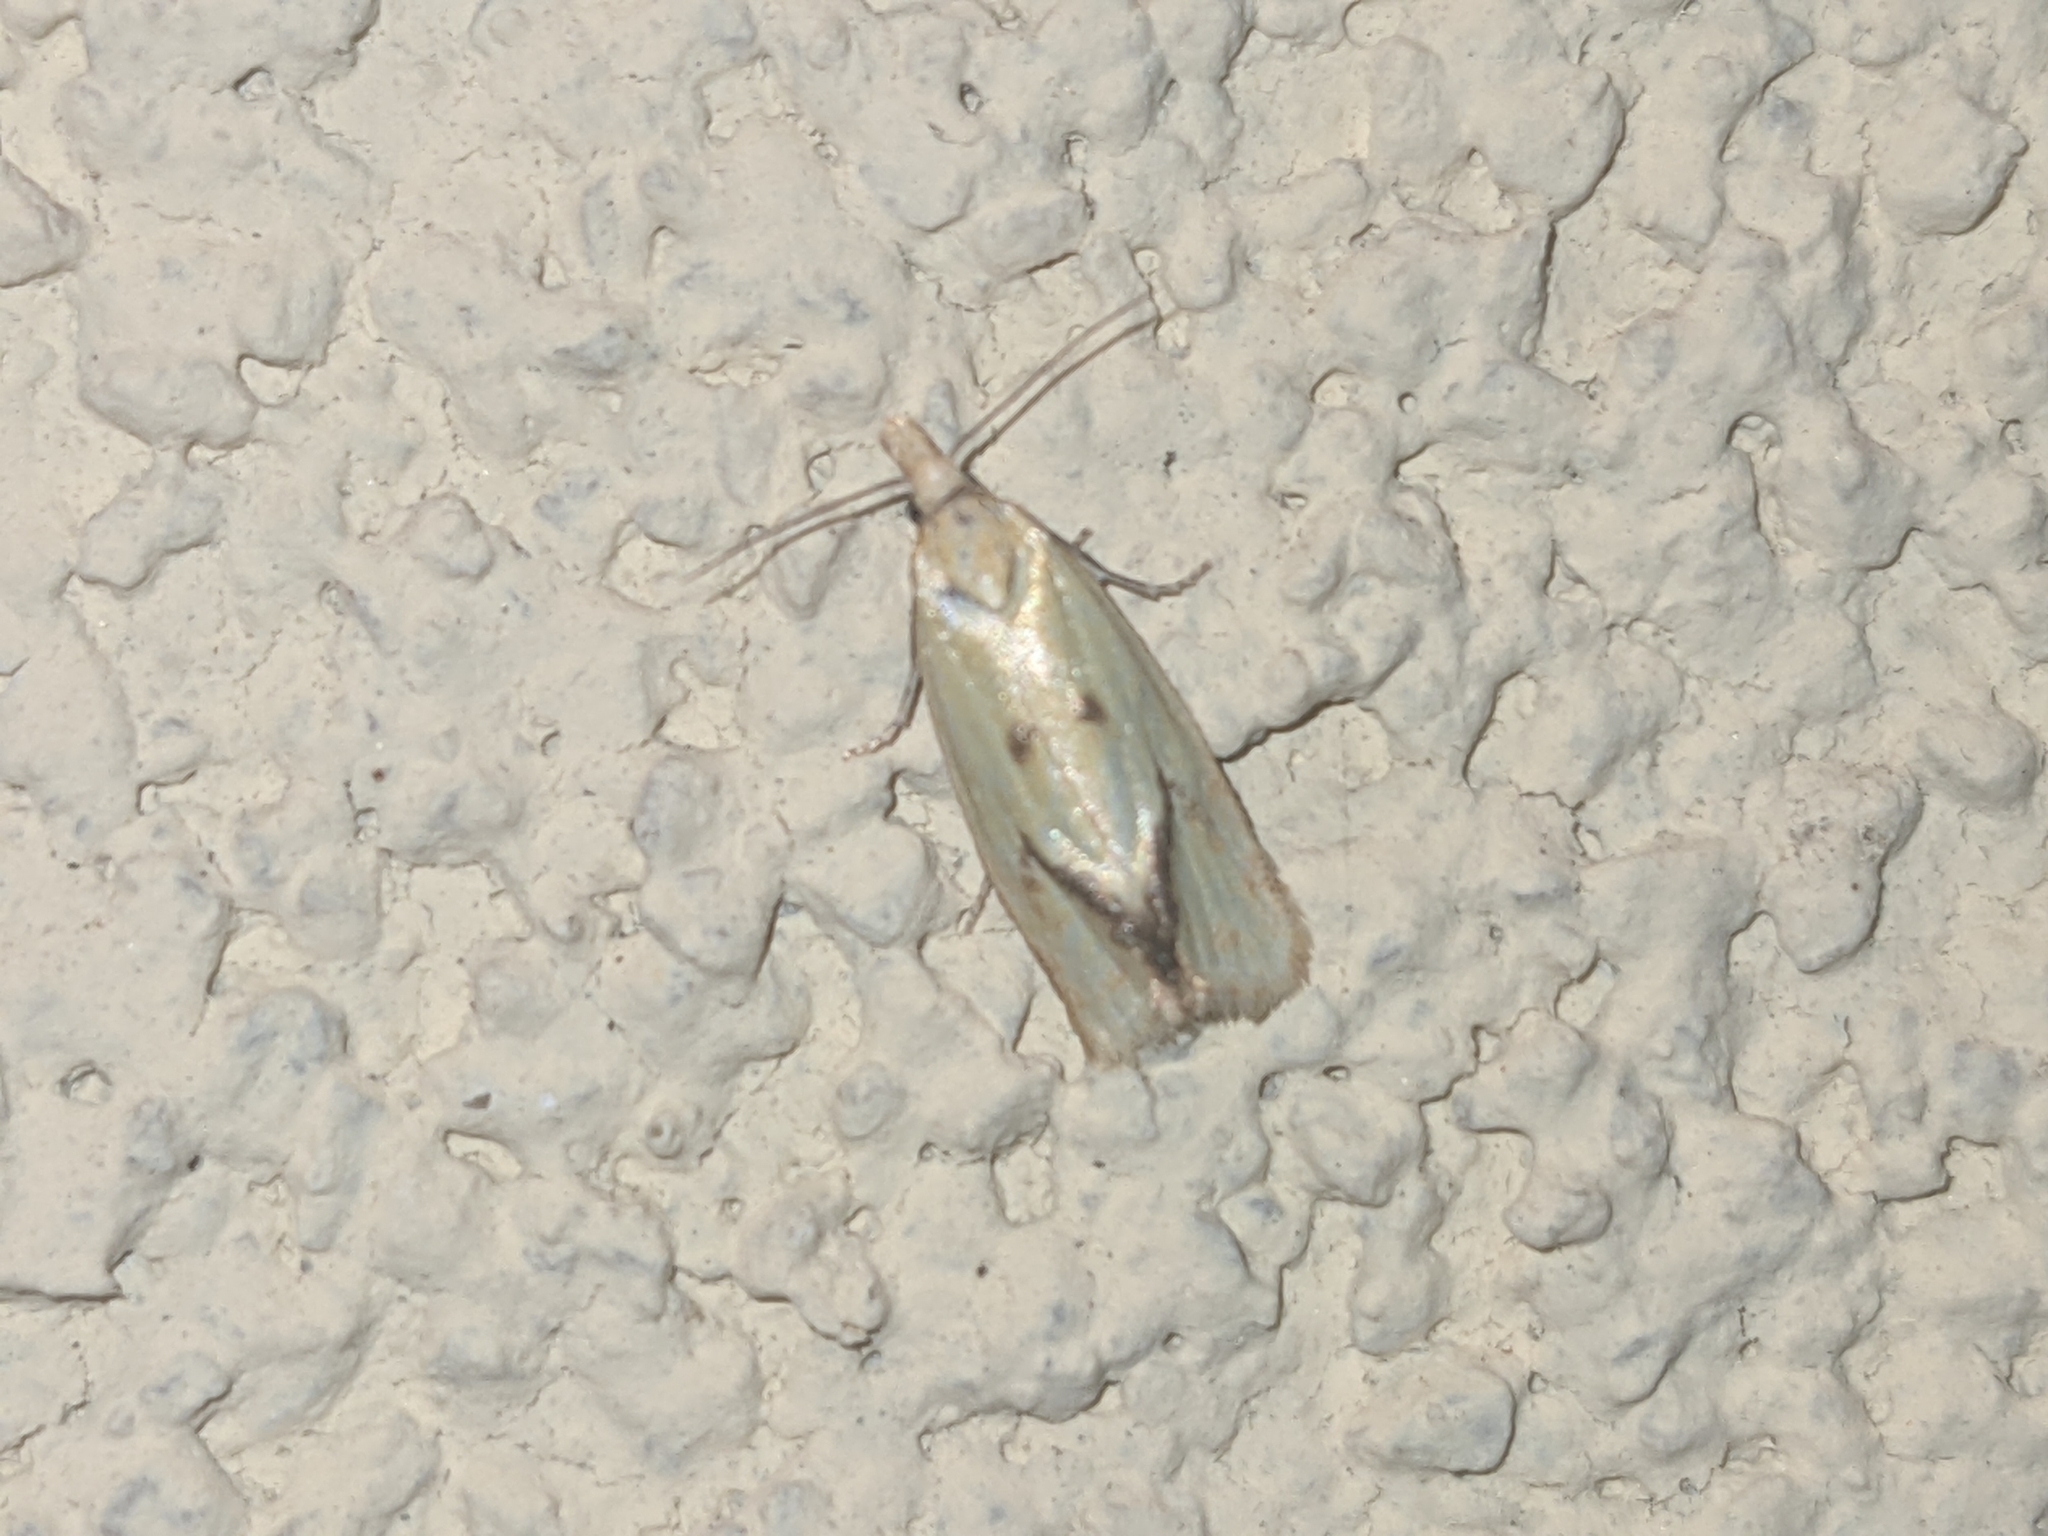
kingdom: Animalia
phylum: Arthropoda
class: Insecta
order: Lepidoptera
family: Tortricidae
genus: Agapeta
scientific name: Agapeta hamana
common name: Common yellow conch
